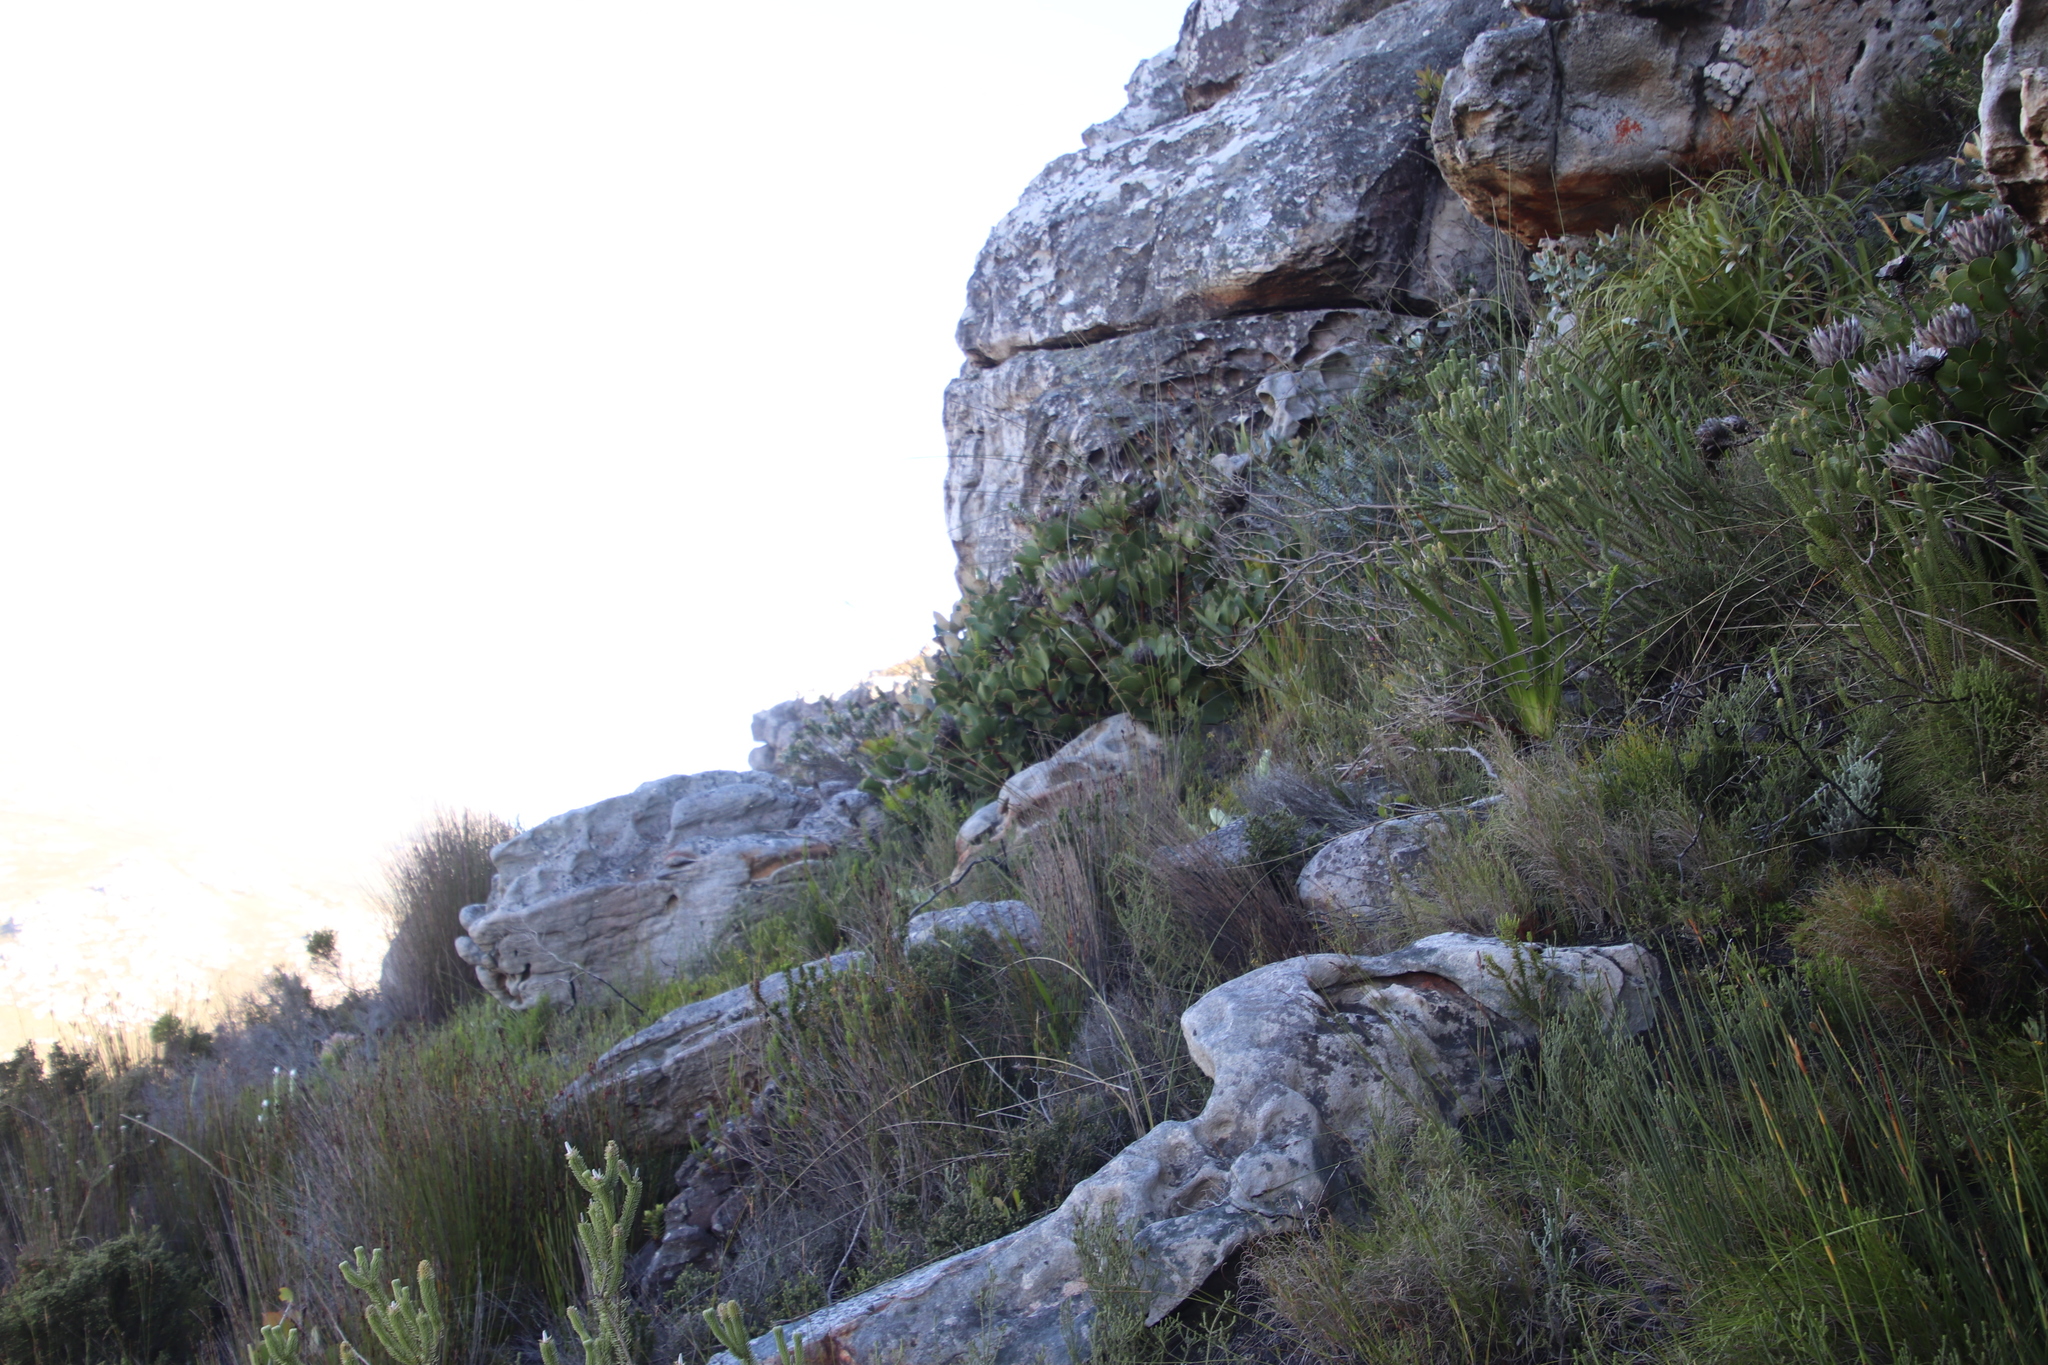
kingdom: Plantae
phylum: Tracheophyta
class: Magnoliopsida
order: Proteales
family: Proteaceae
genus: Protea
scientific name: Protea cynaroides
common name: King protea
